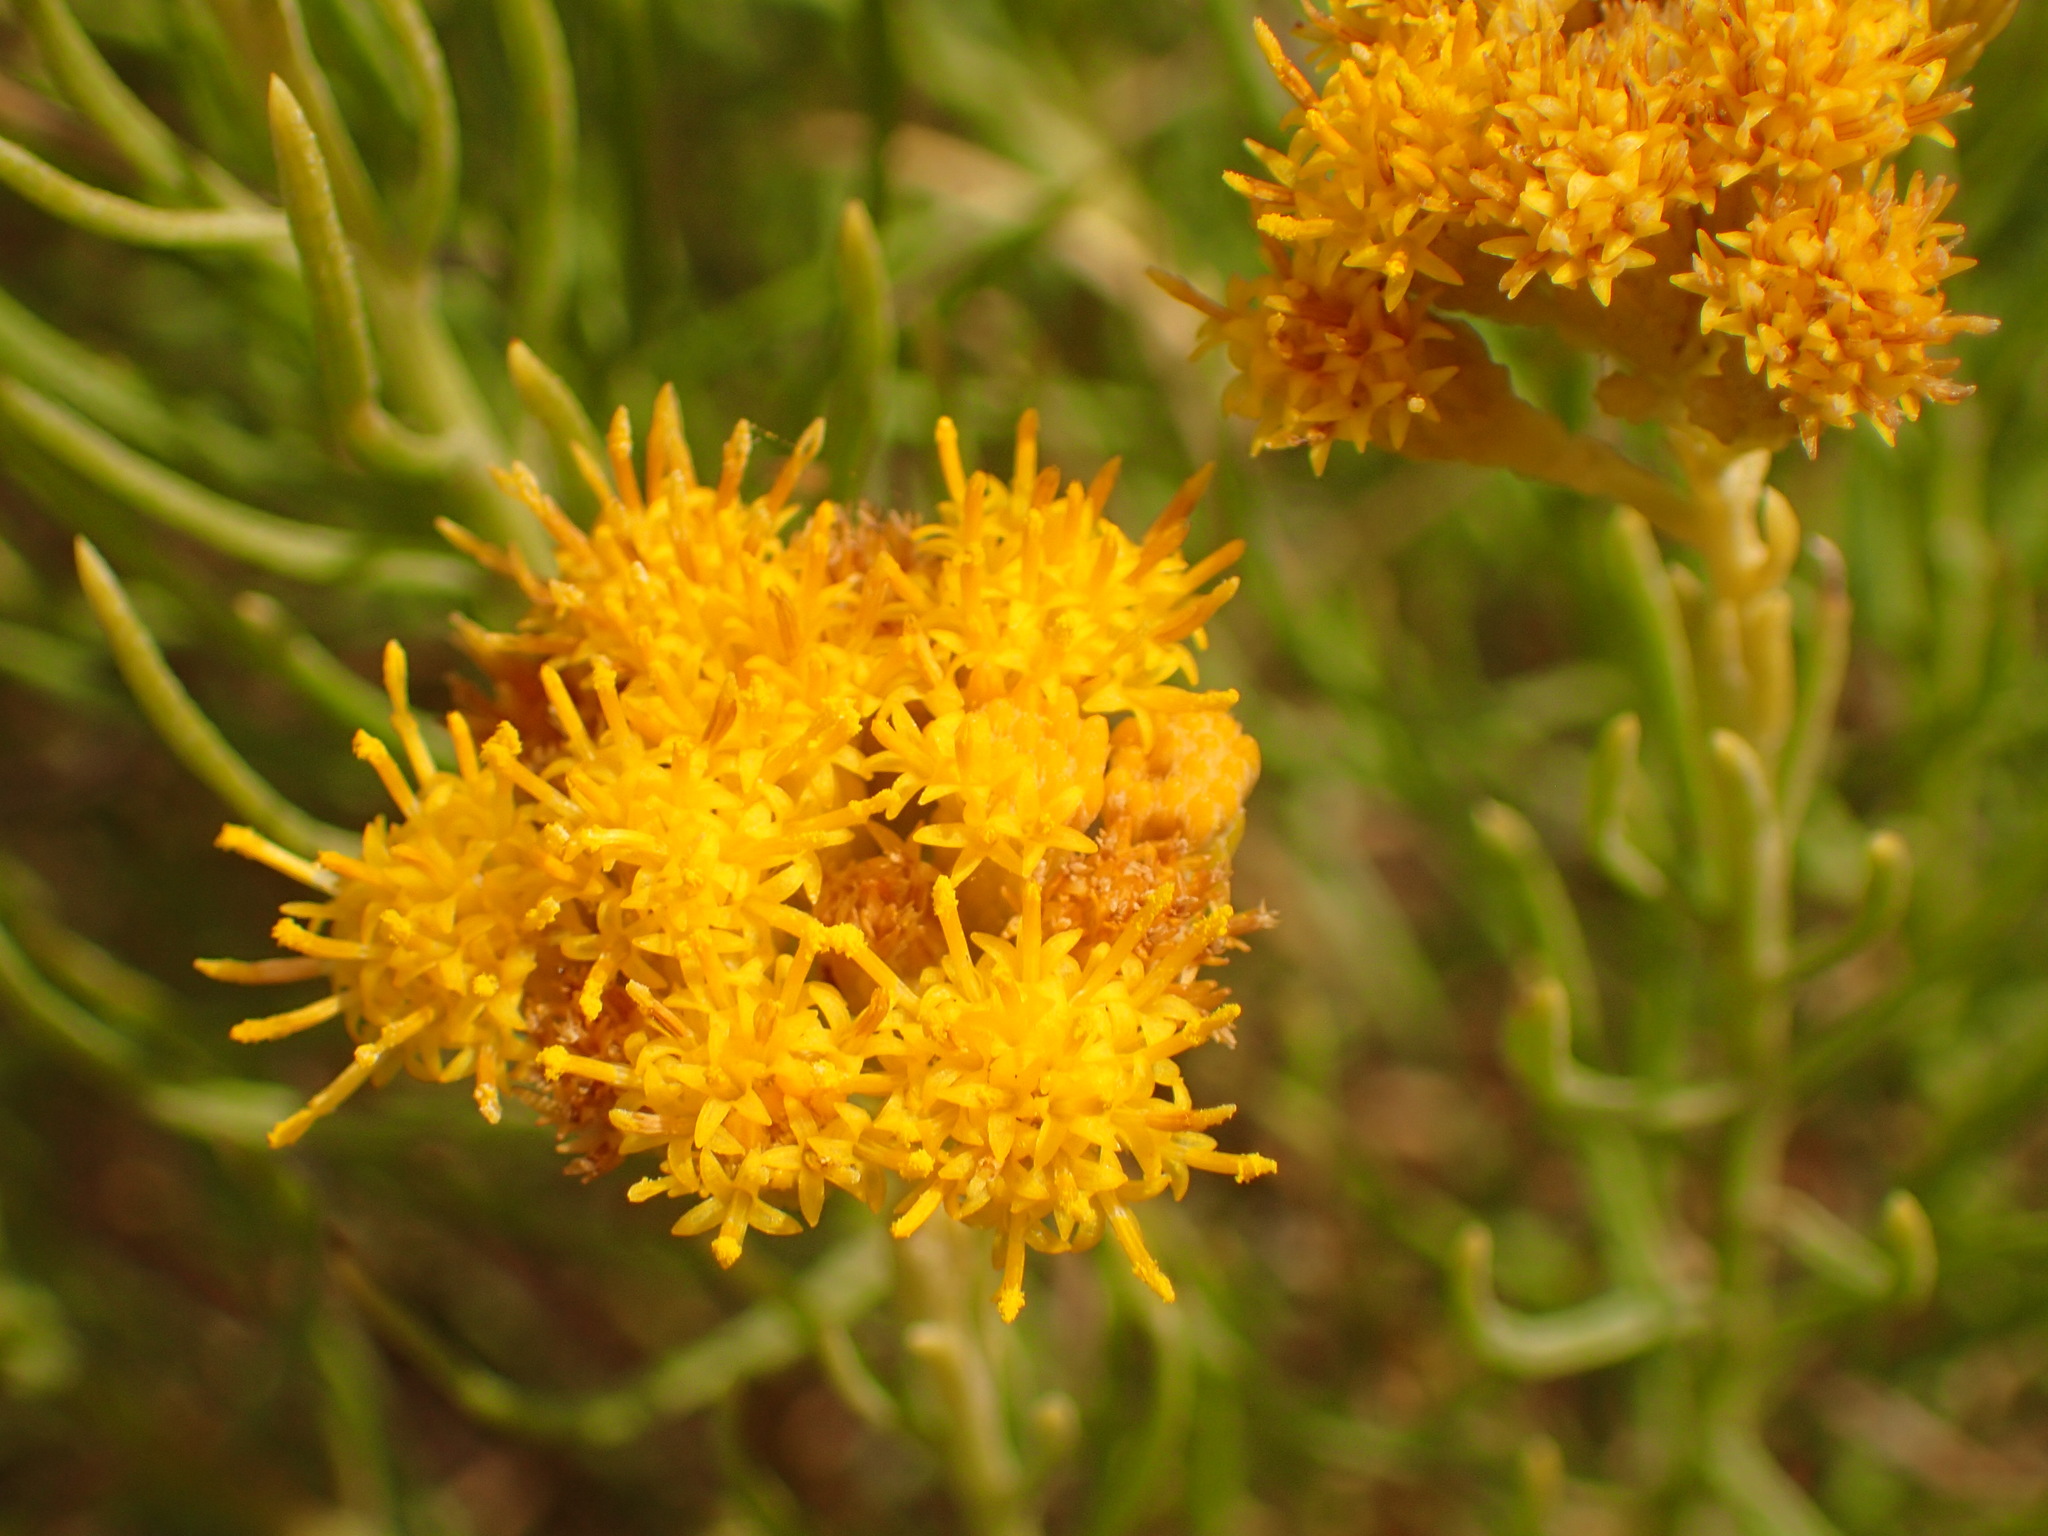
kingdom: Plantae
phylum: Tracheophyta
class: Magnoliopsida
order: Asterales
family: Asteraceae
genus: Ericameria
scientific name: Ericameria arborescens
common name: Goldenfleece
